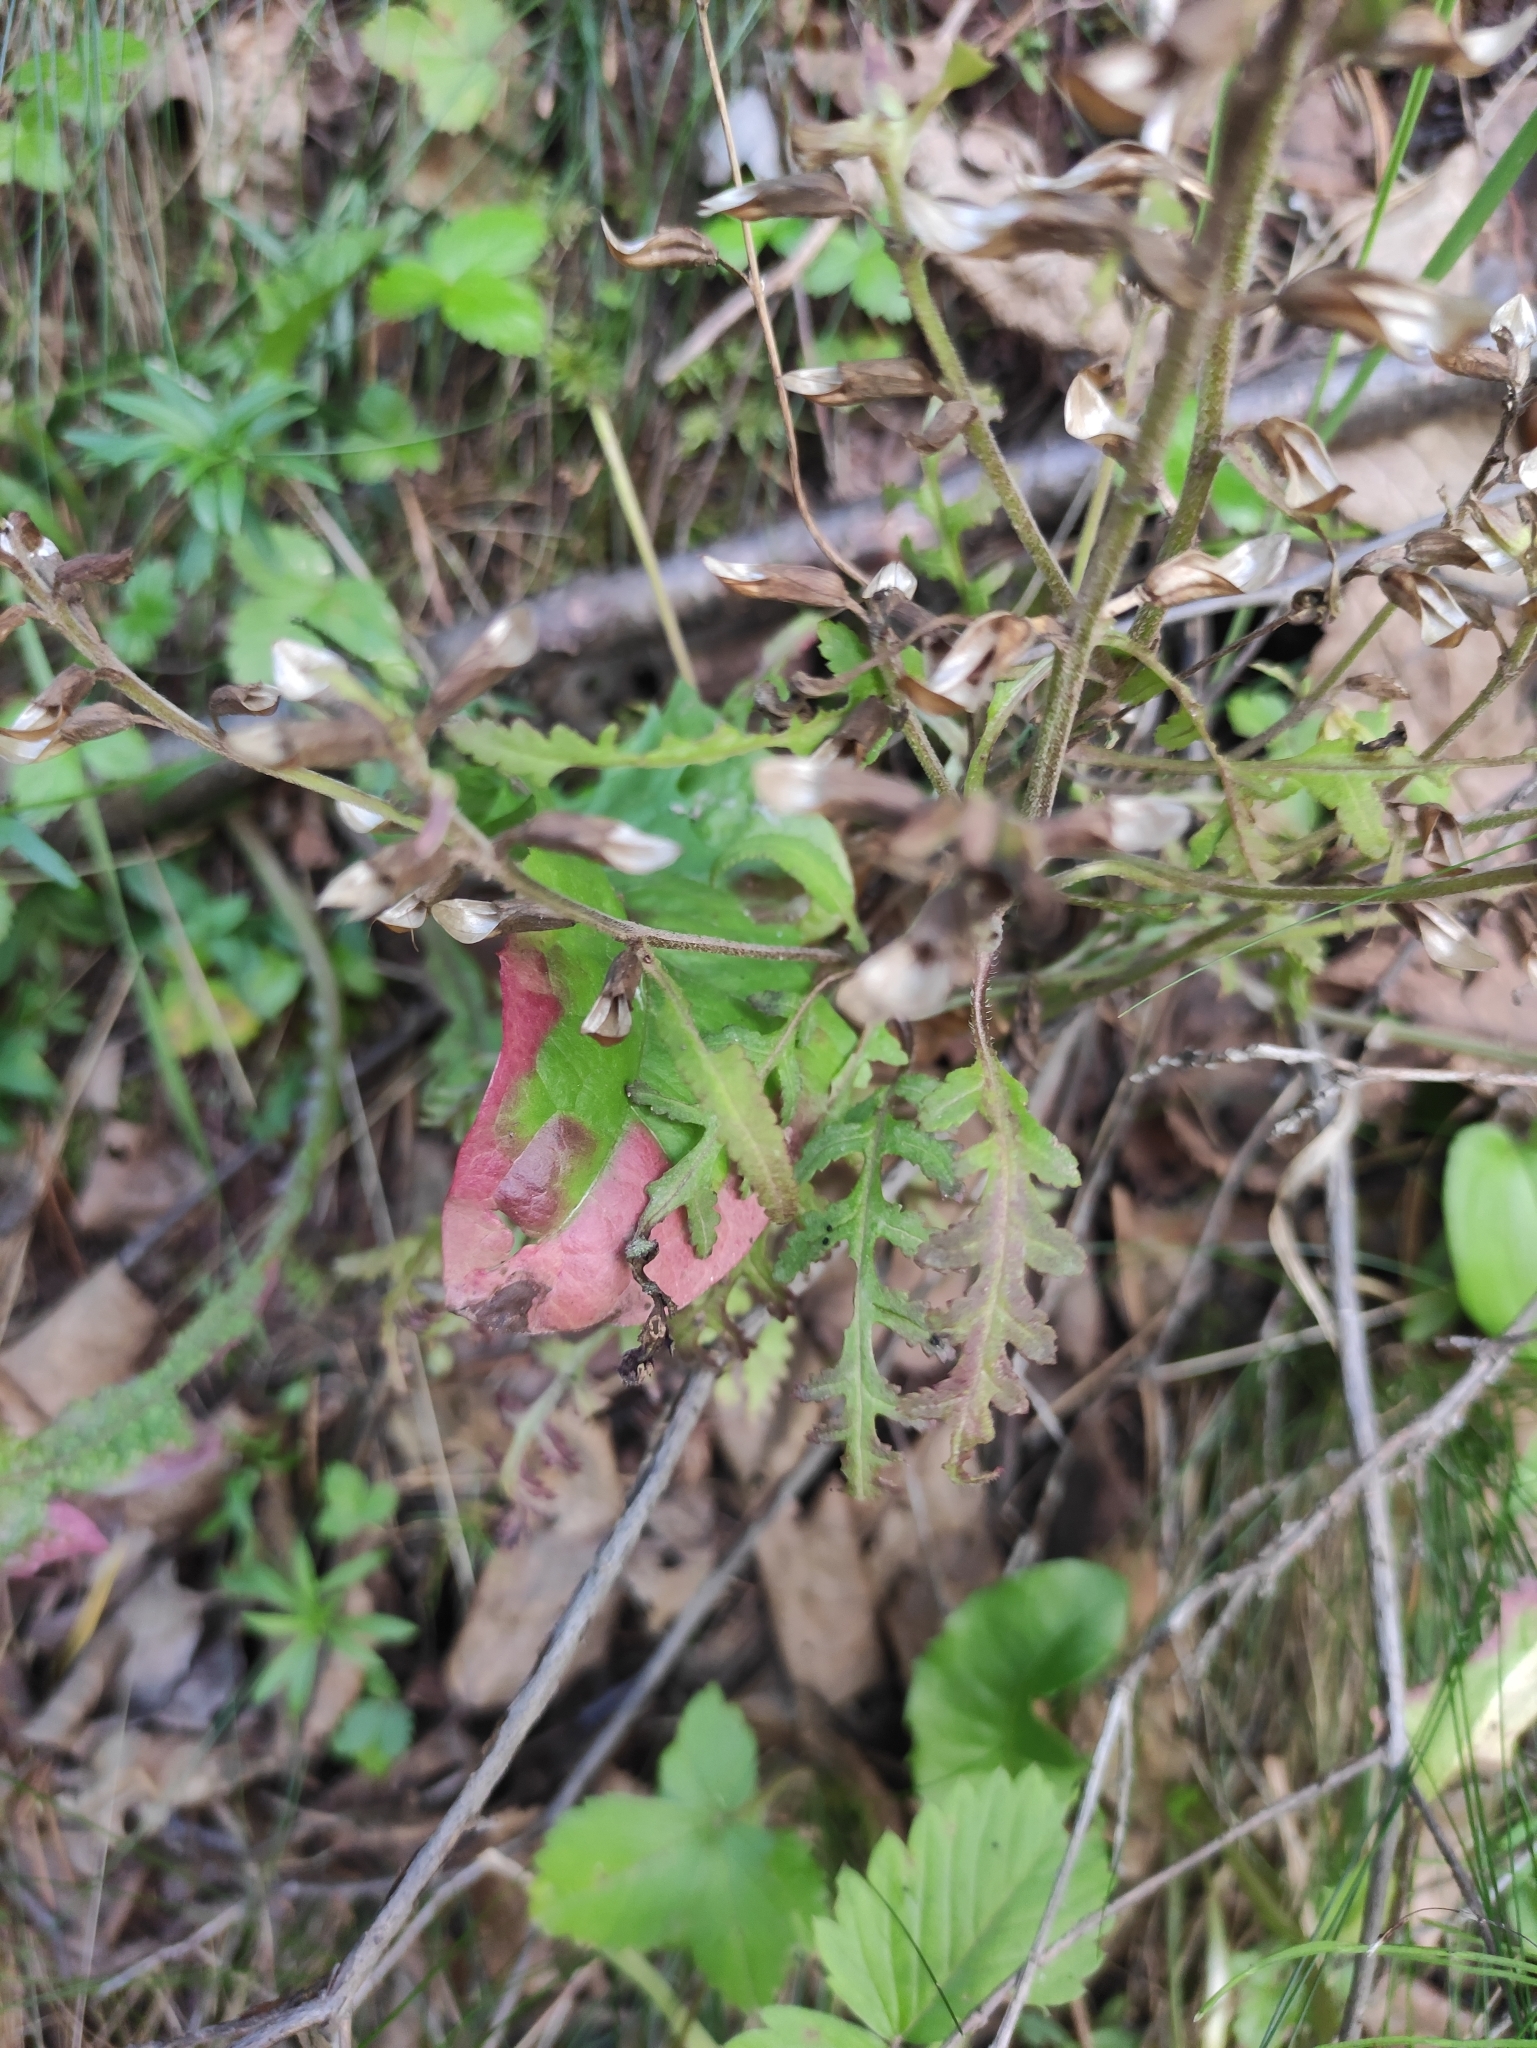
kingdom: Plantae
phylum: Tracheophyta
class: Magnoliopsida
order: Lamiales
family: Orobanchaceae
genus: Pedicularis
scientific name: Pedicularis labradorica
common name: Labrador lousewort
